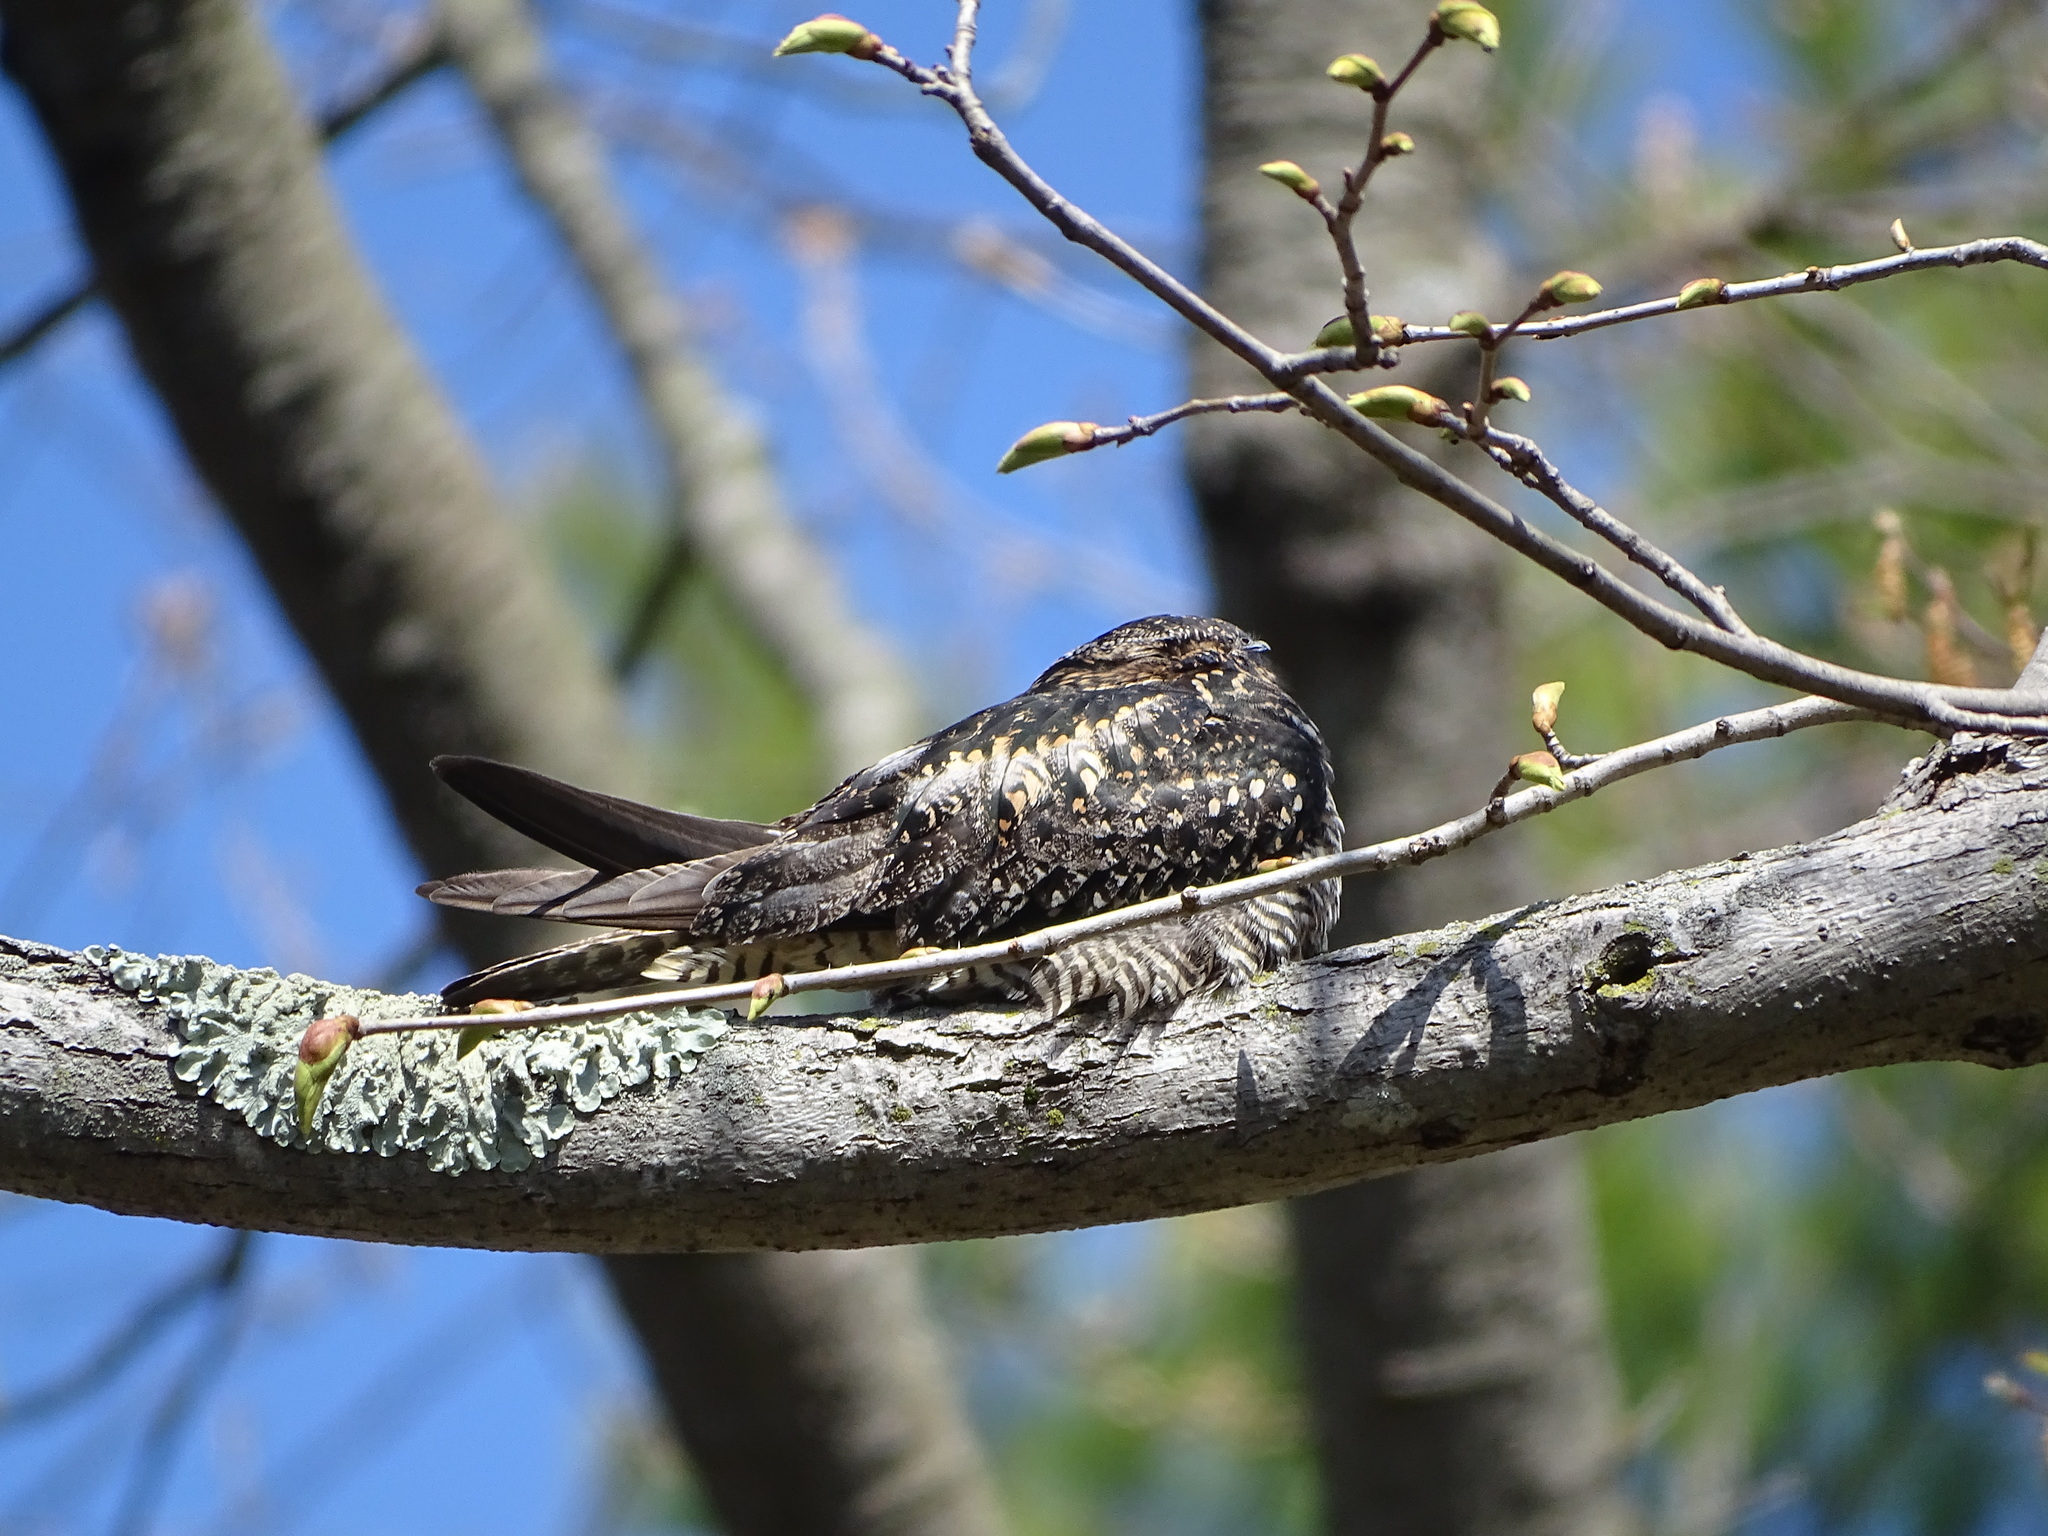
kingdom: Animalia
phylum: Chordata
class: Aves
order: Caprimulgiformes
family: Caprimulgidae
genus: Chordeiles
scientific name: Chordeiles minor
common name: Common nighthawk
